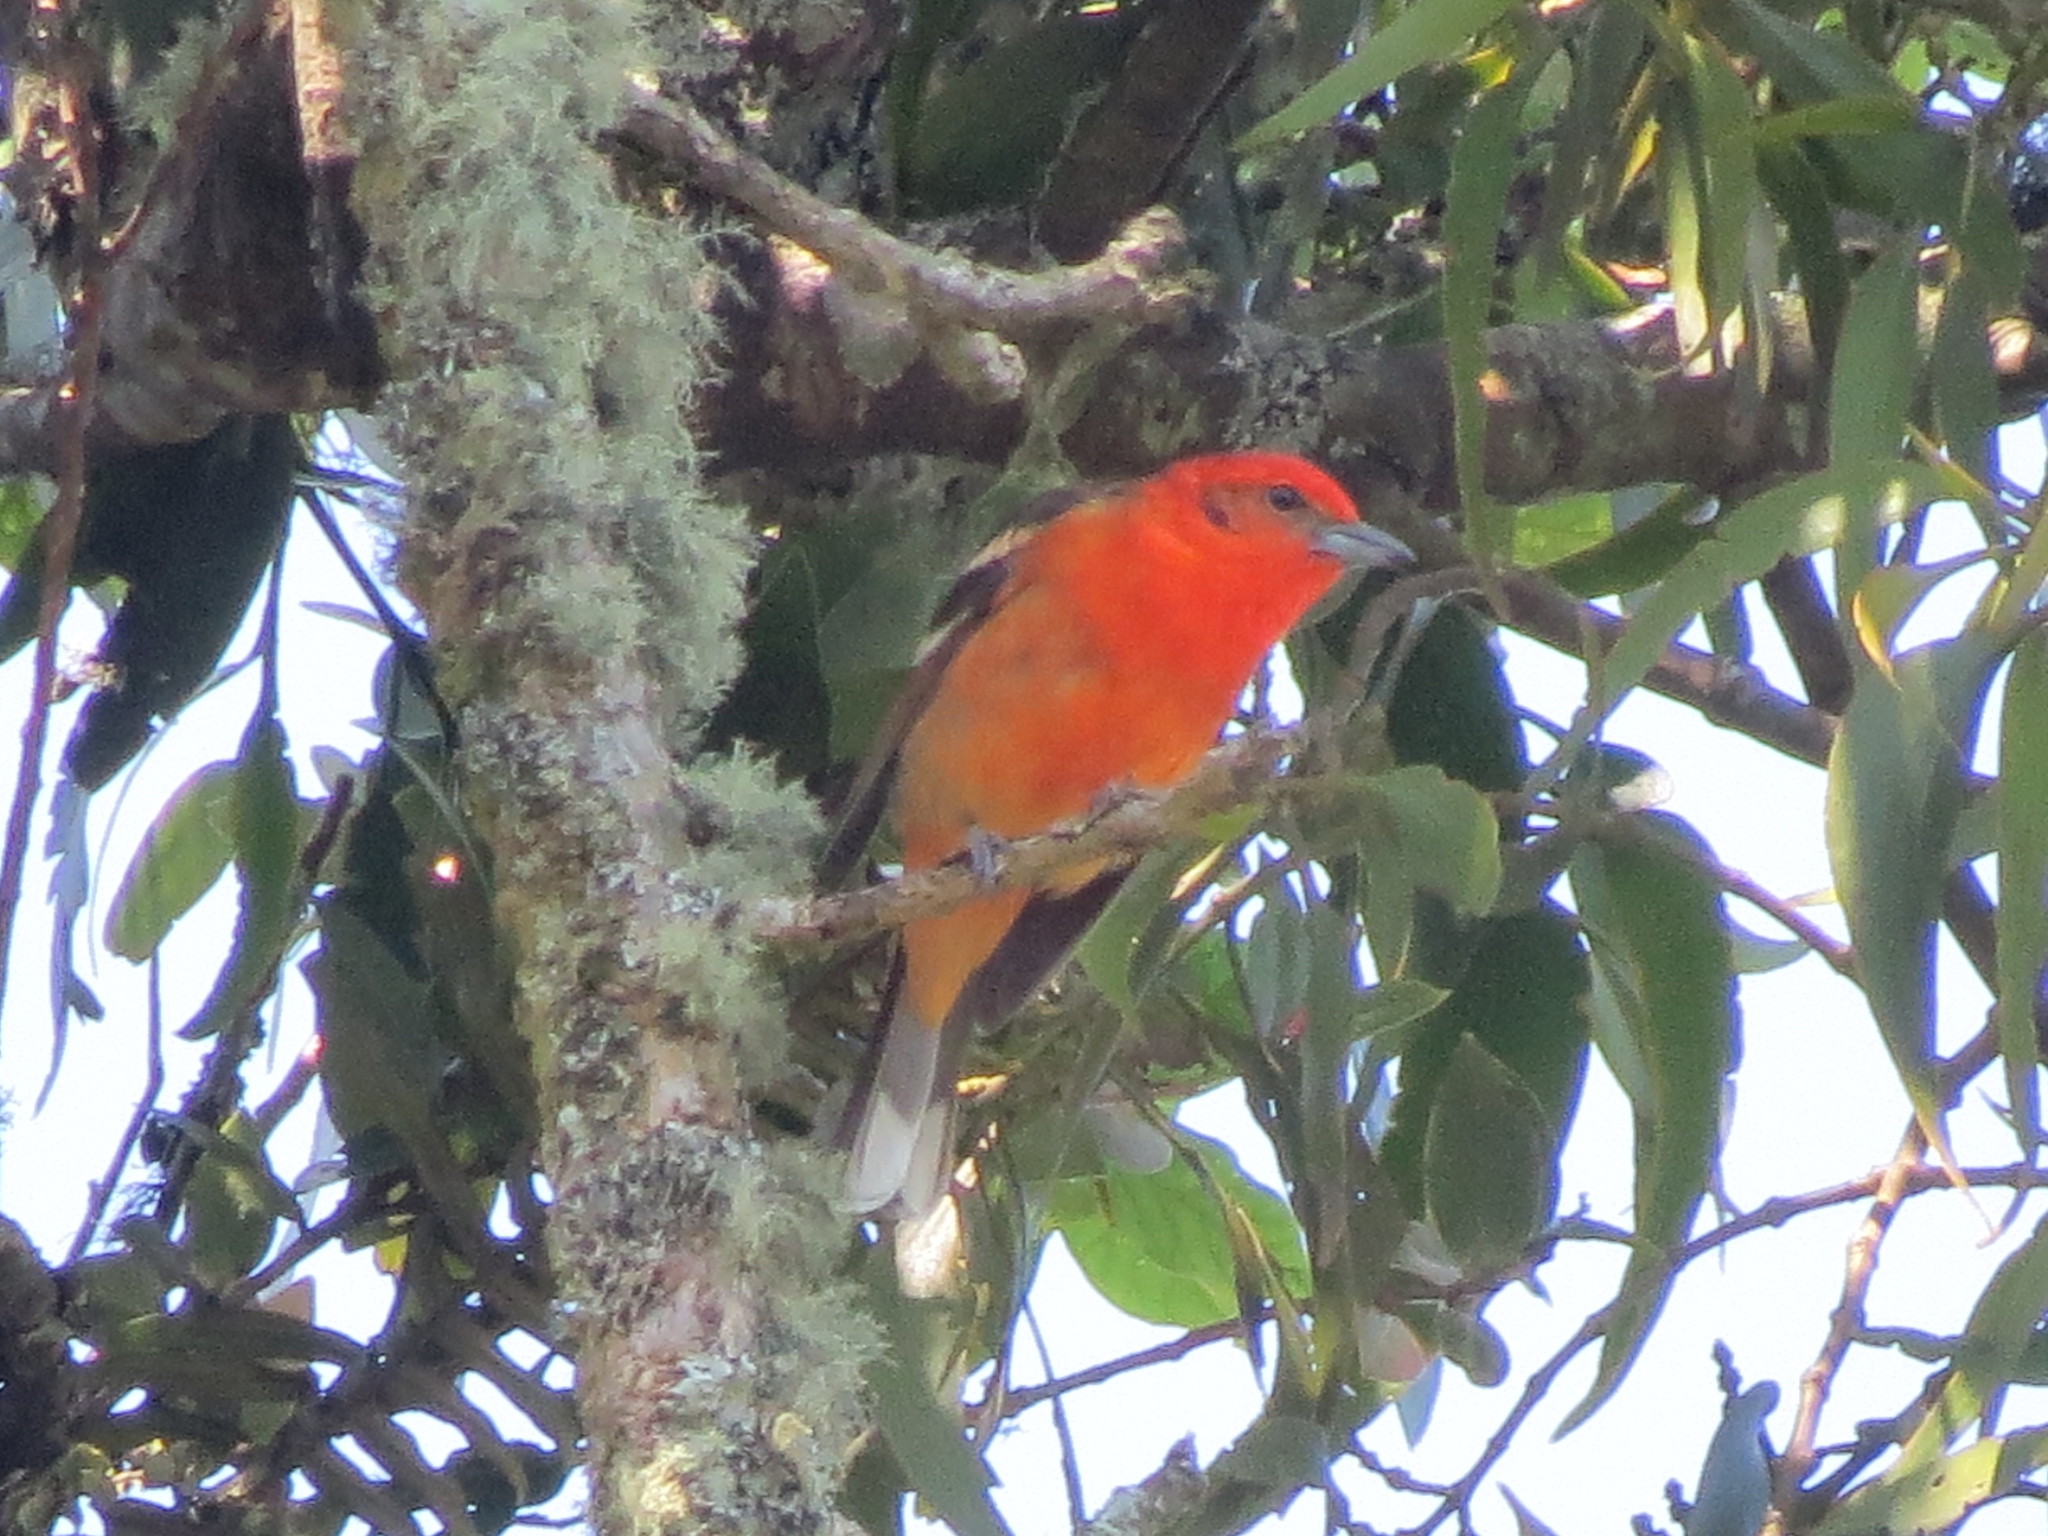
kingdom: Animalia
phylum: Chordata
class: Aves
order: Passeriformes
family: Cardinalidae
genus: Piranga
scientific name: Piranga bidentata
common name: Flame-colored tanager
